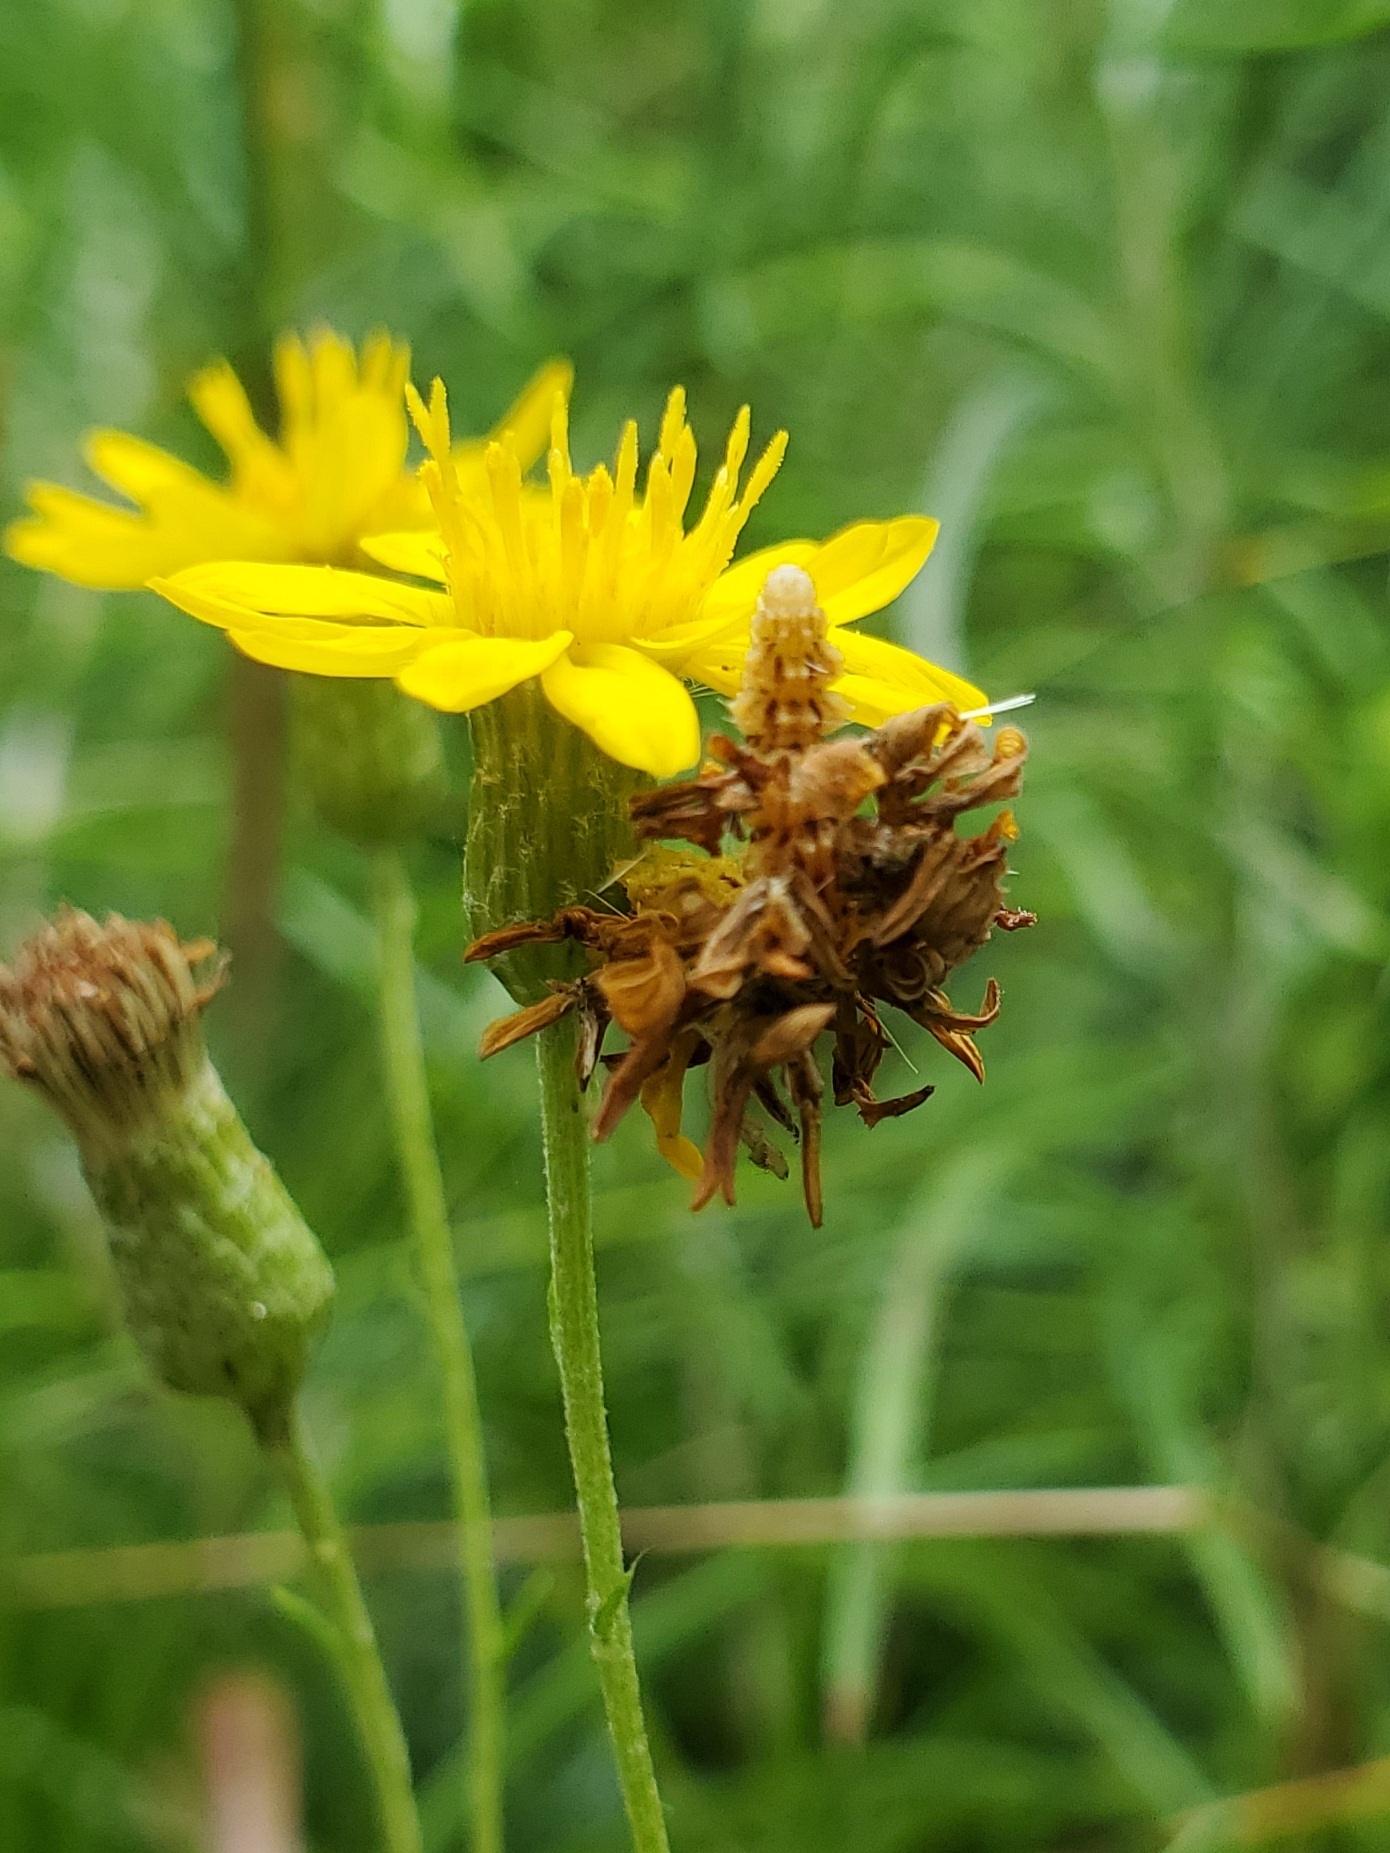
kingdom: Animalia
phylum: Arthropoda
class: Insecta
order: Lepidoptera
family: Geometridae
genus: Synchlora
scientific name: Synchlora aerata
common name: Wavy-lined emerald
